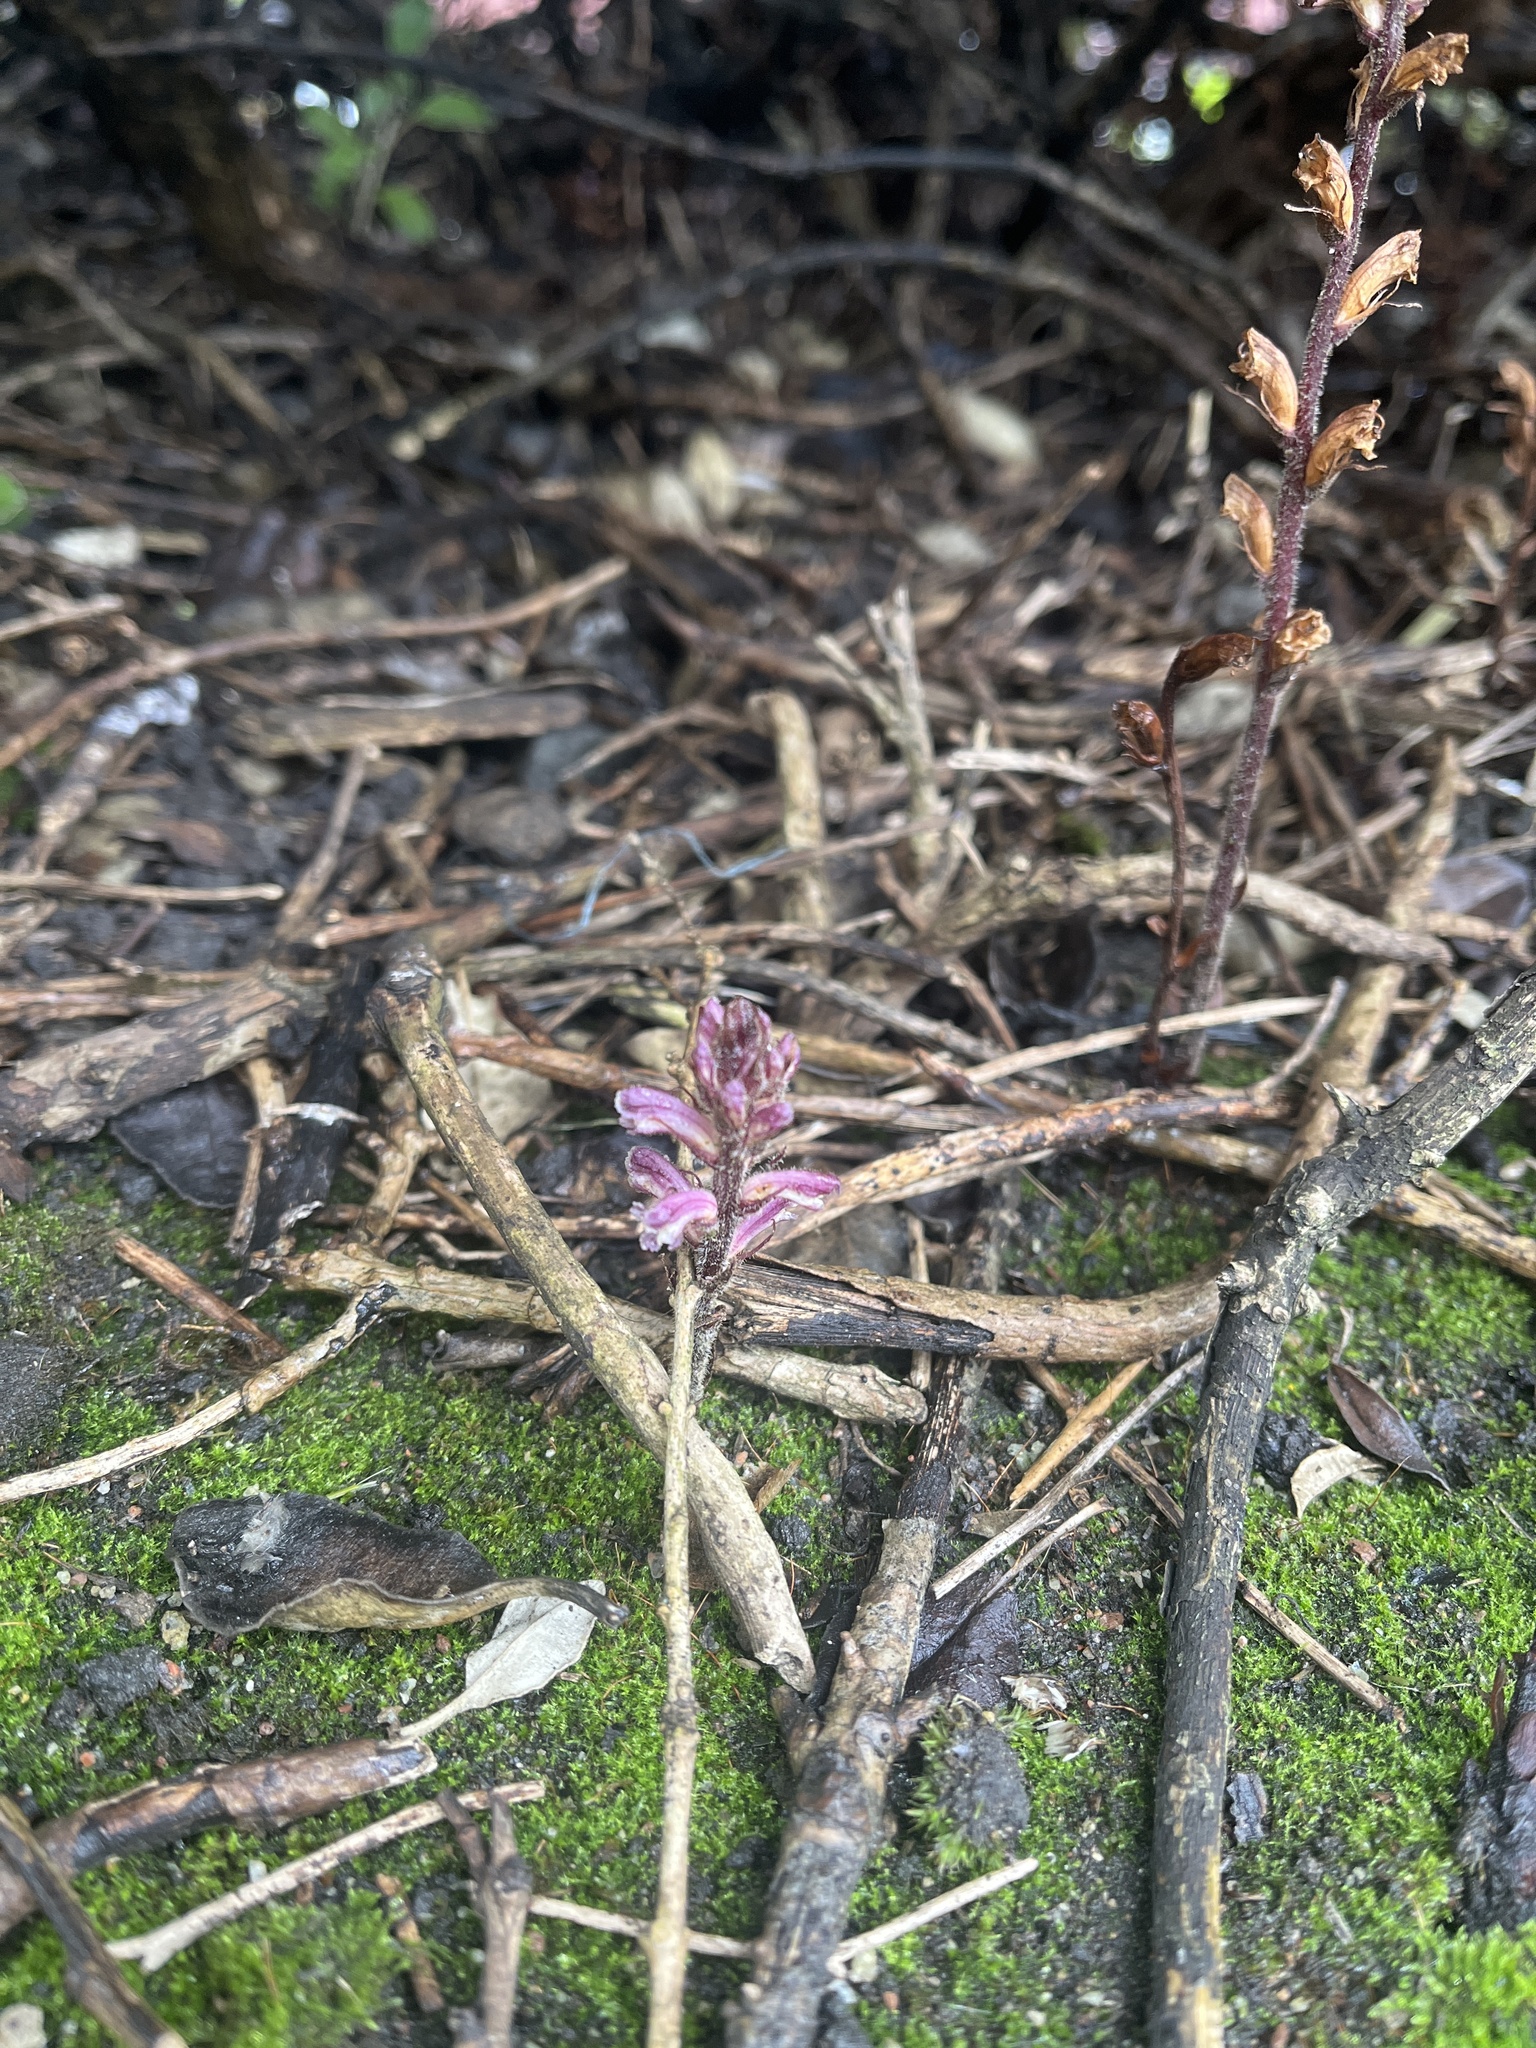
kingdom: Plantae
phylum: Tracheophyta
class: Magnoliopsida
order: Lamiales
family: Orobanchaceae
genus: Orobanche
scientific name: Orobanche minor
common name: Common broomrape
